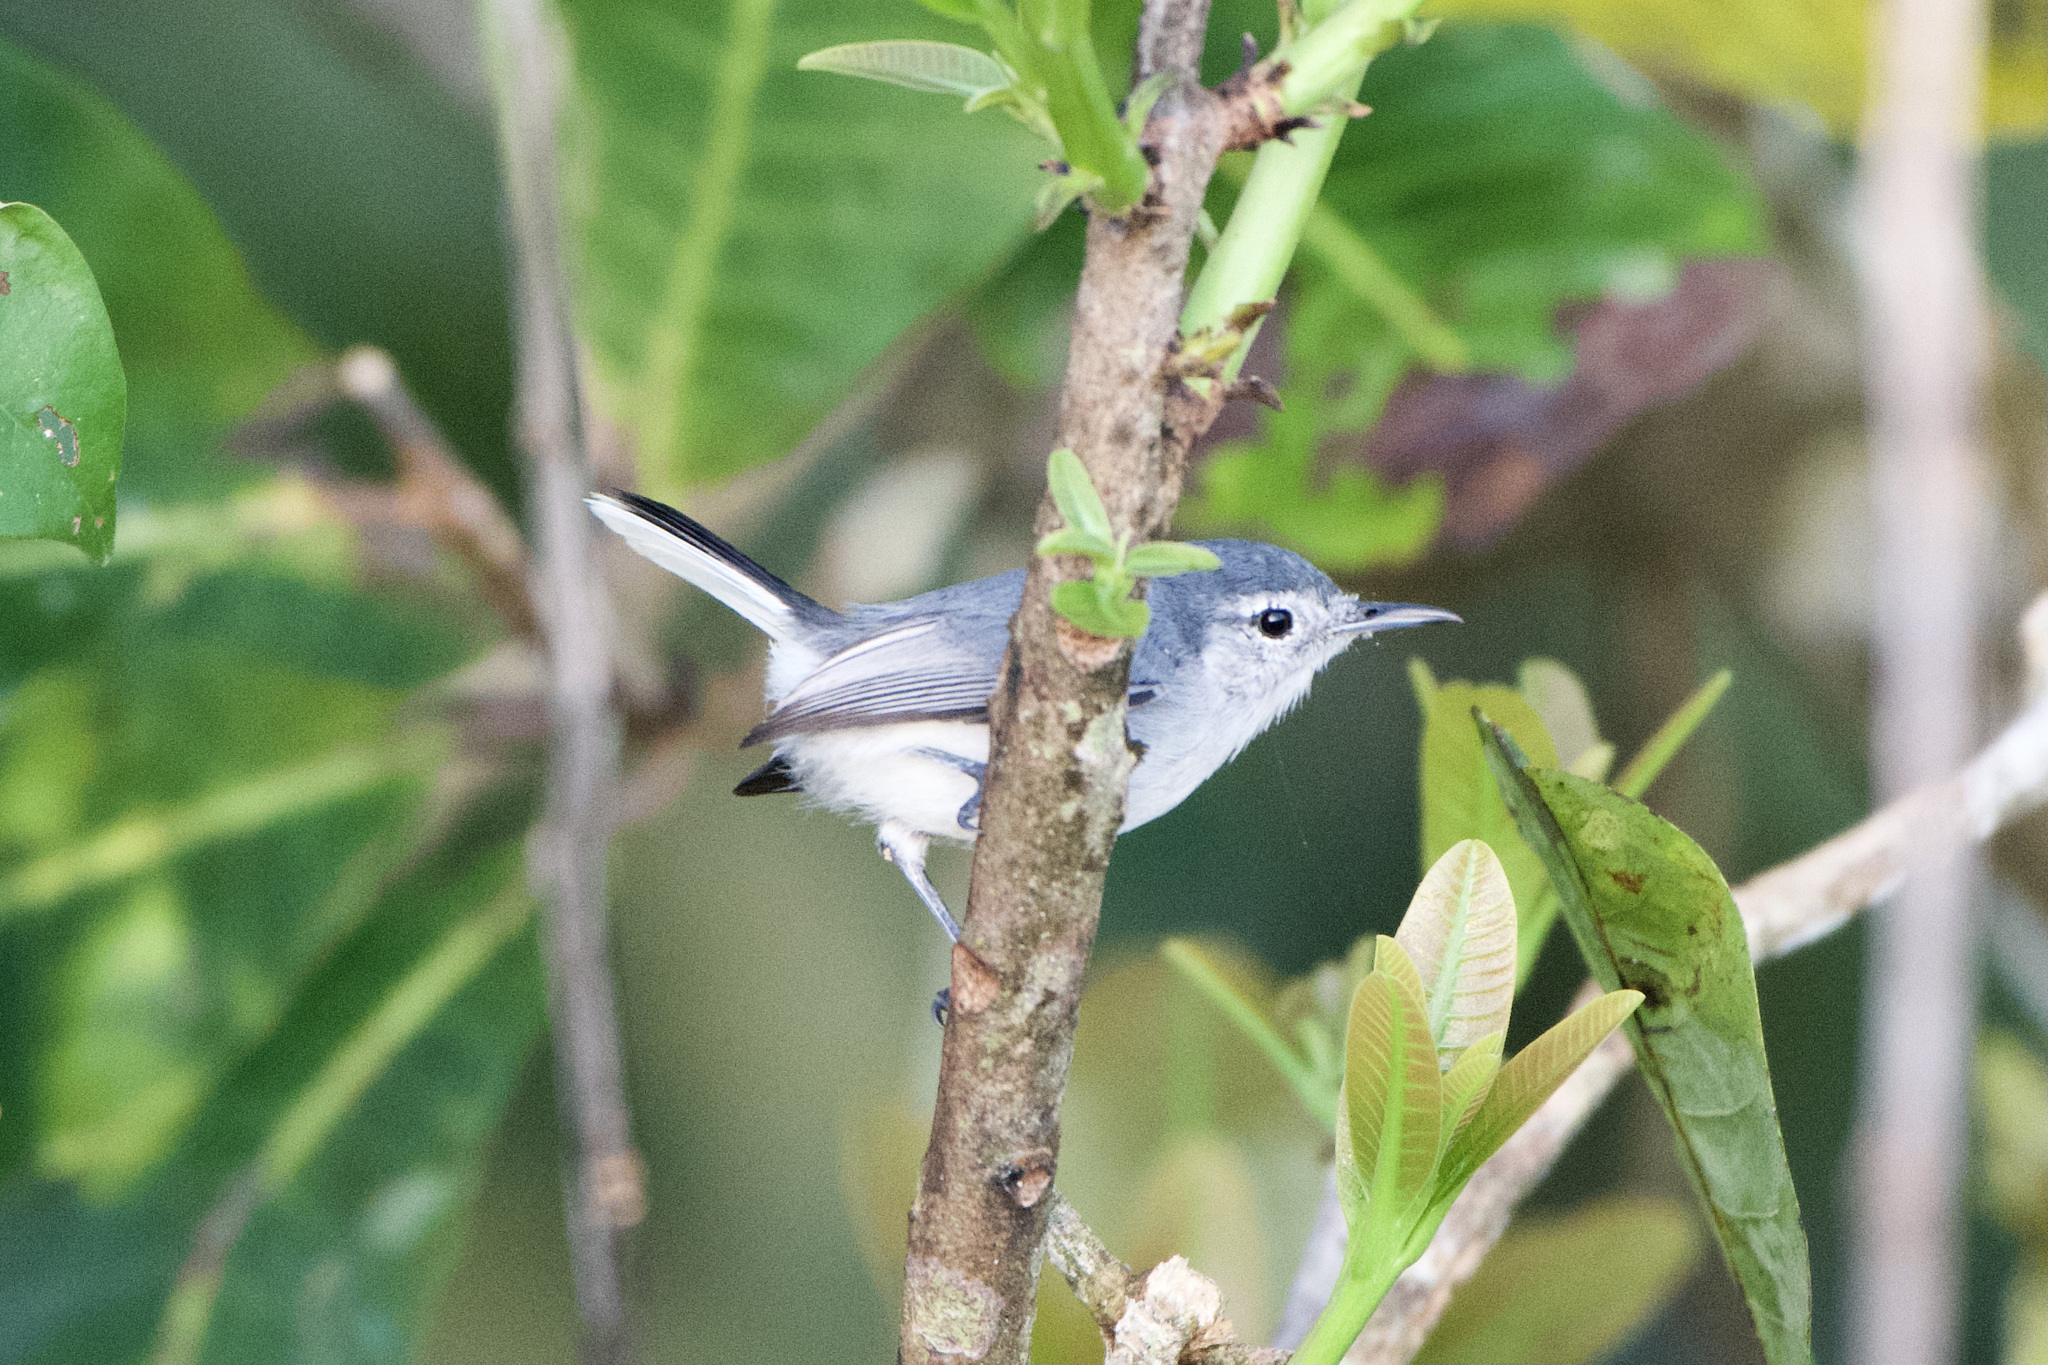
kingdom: Animalia
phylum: Chordata
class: Aves
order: Passeriformes
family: Polioptilidae
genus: Polioptila
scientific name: Polioptila plumbea
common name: Tropical gnatcatcher
